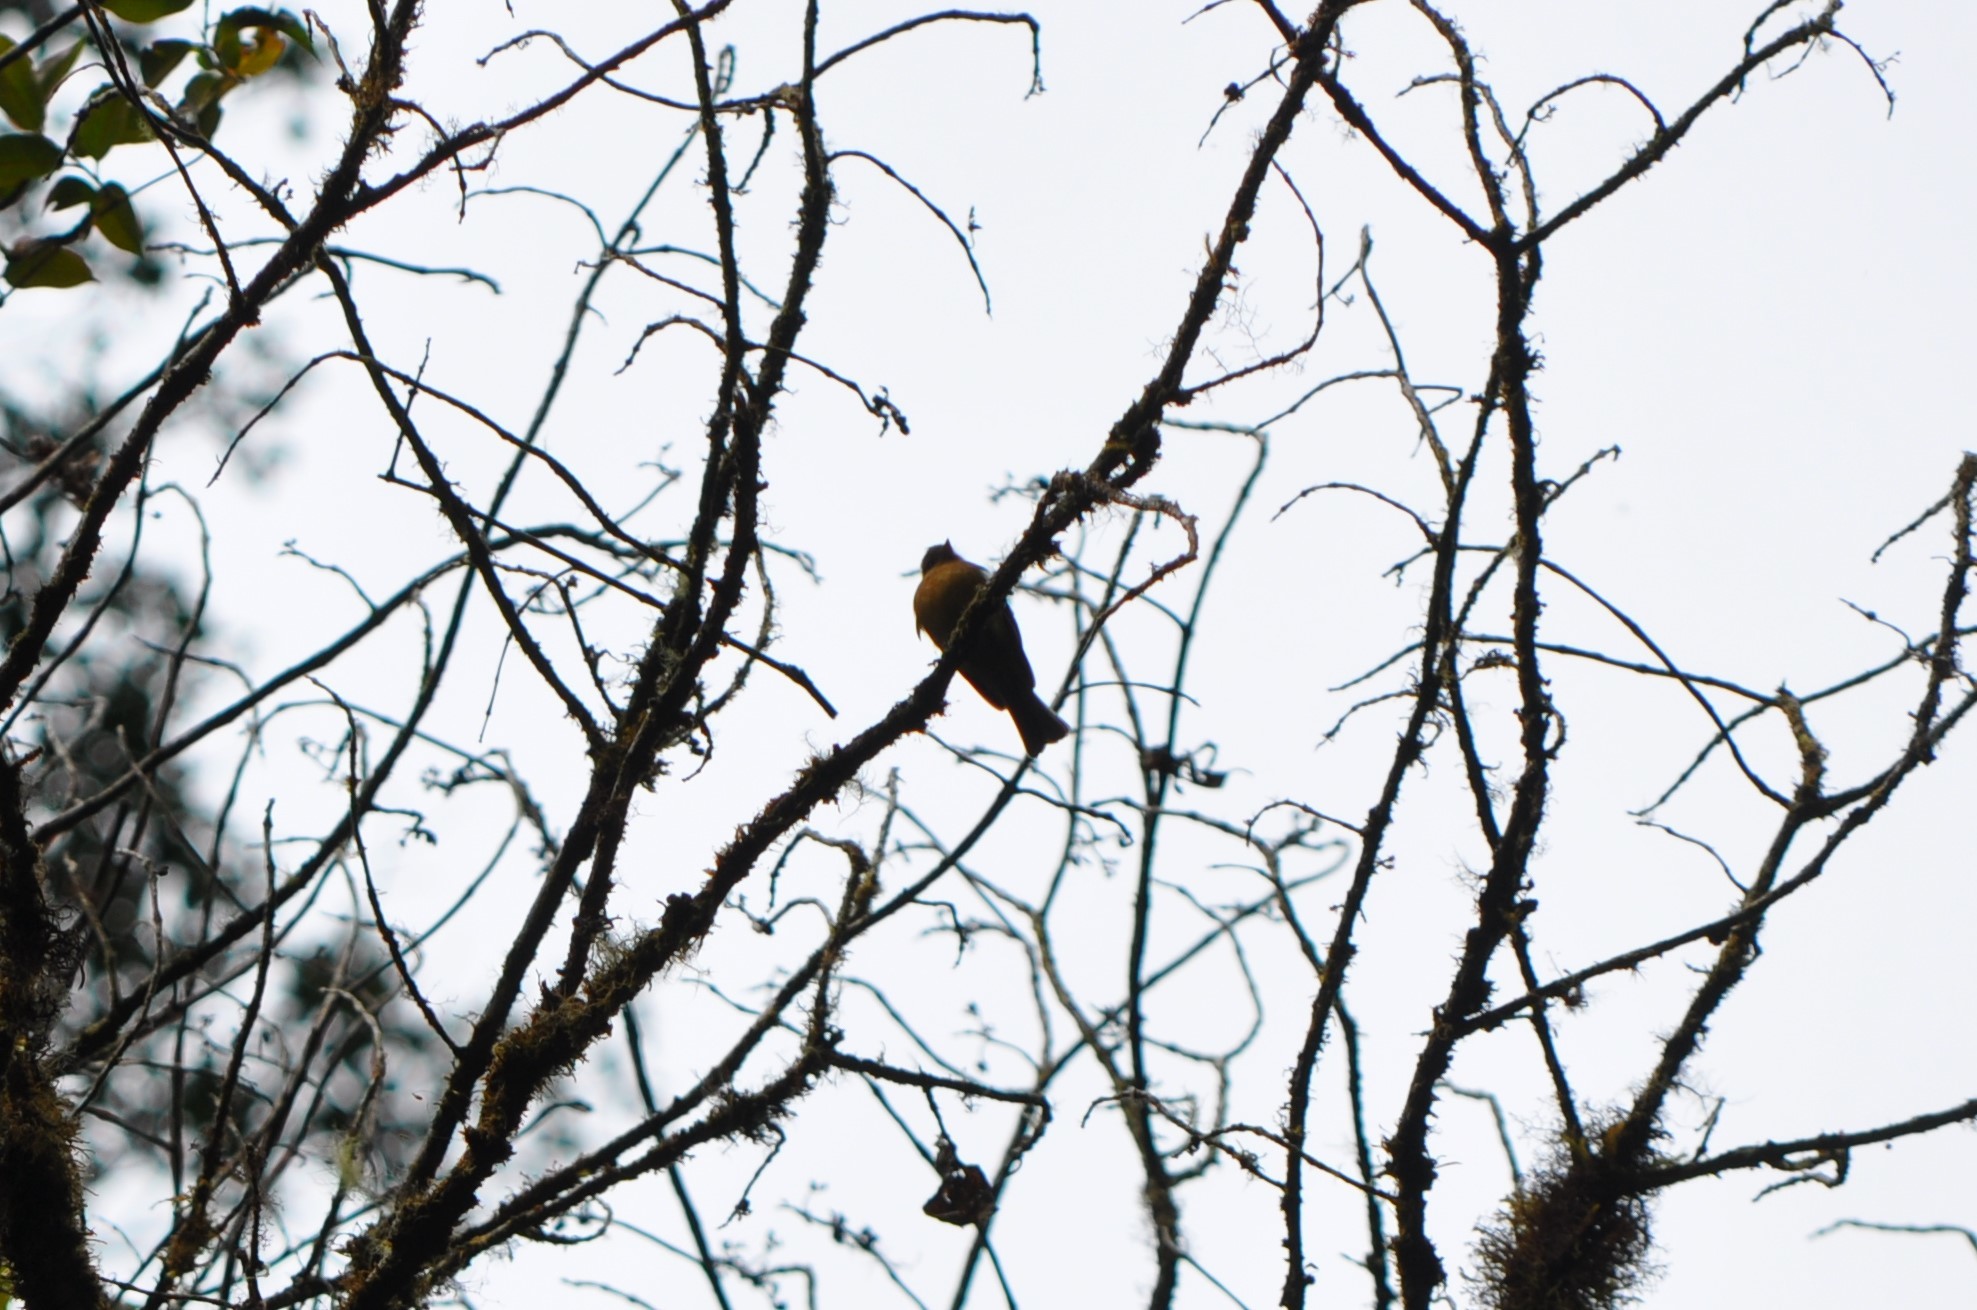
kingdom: Animalia
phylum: Chordata
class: Aves
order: Passeriformes
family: Tyrannidae
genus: Mitrephanes
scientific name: Mitrephanes phaeocercus
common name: Northern tufted flycatcher
